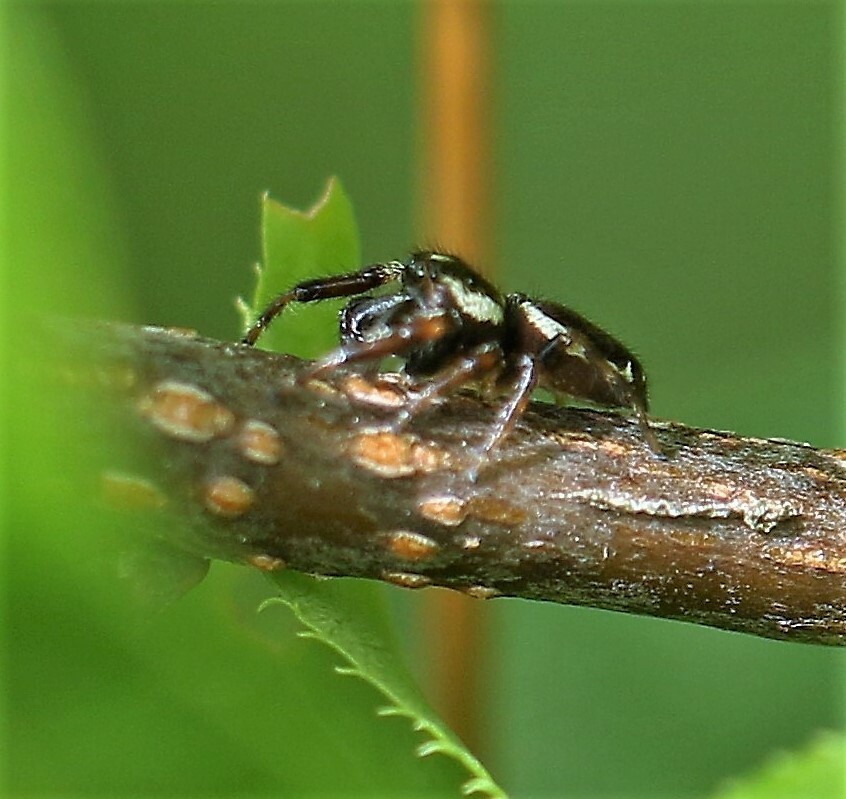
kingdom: Animalia
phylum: Arthropoda
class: Arachnida
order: Araneae
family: Salticidae
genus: Eris
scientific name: Eris militaris
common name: Bronze jumper
